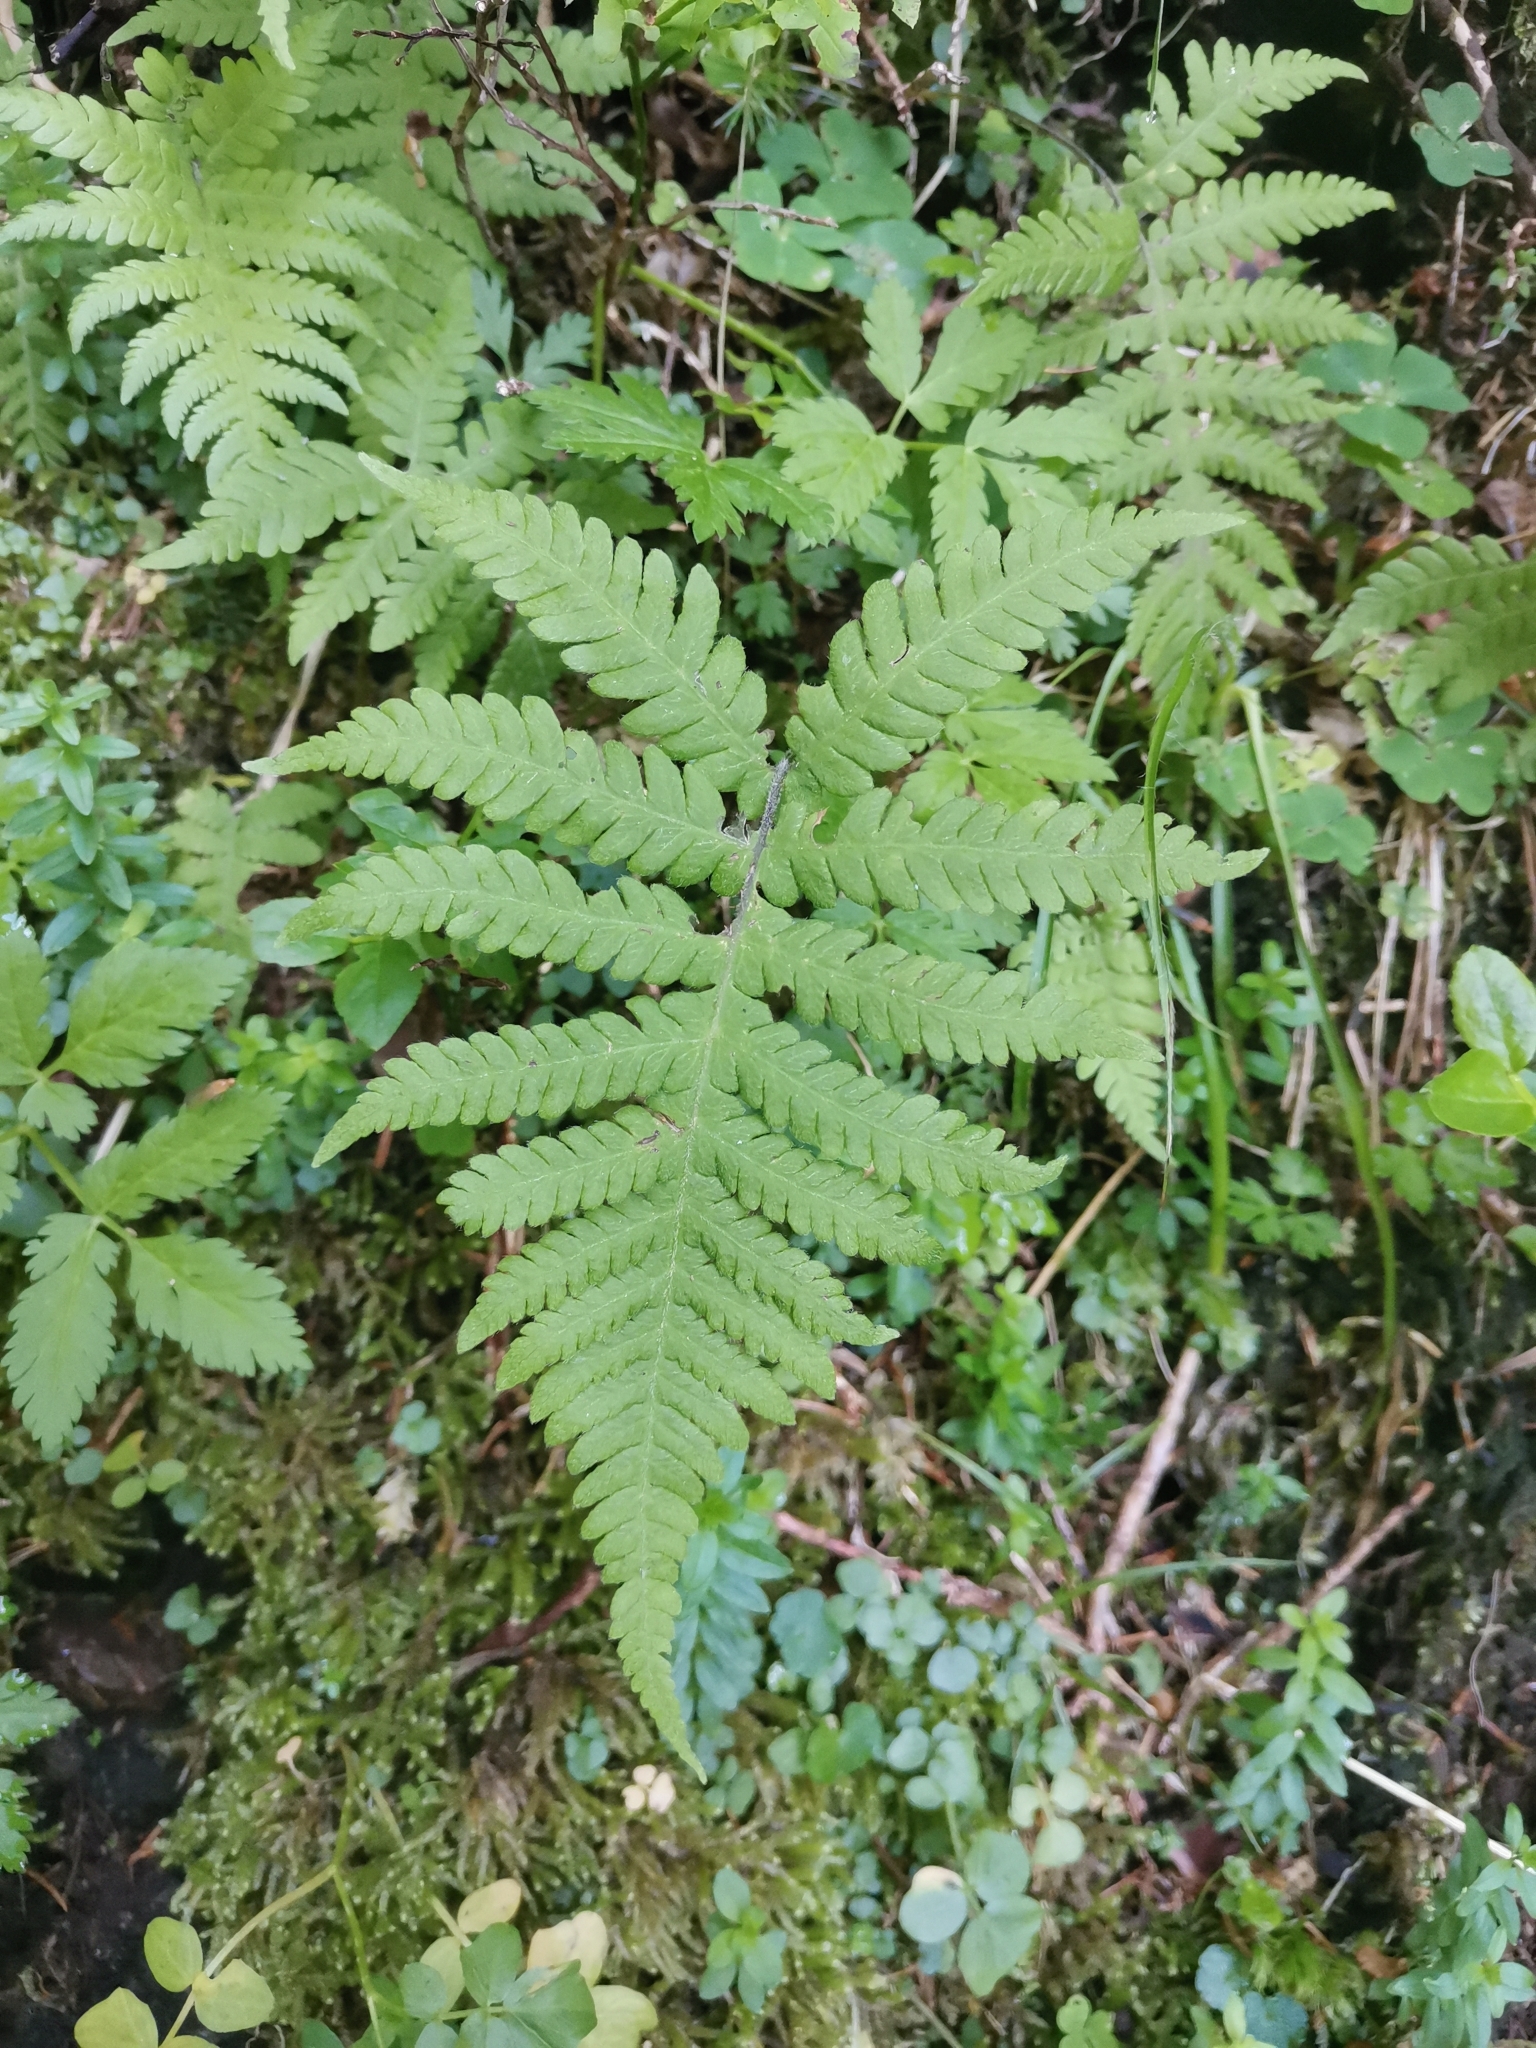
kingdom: Plantae
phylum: Tracheophyta
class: Polypodiopsida
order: Polypodiales
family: Thelypteridaceae
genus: Phegopteris
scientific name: Phegopteris connectilis
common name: Beech fern
